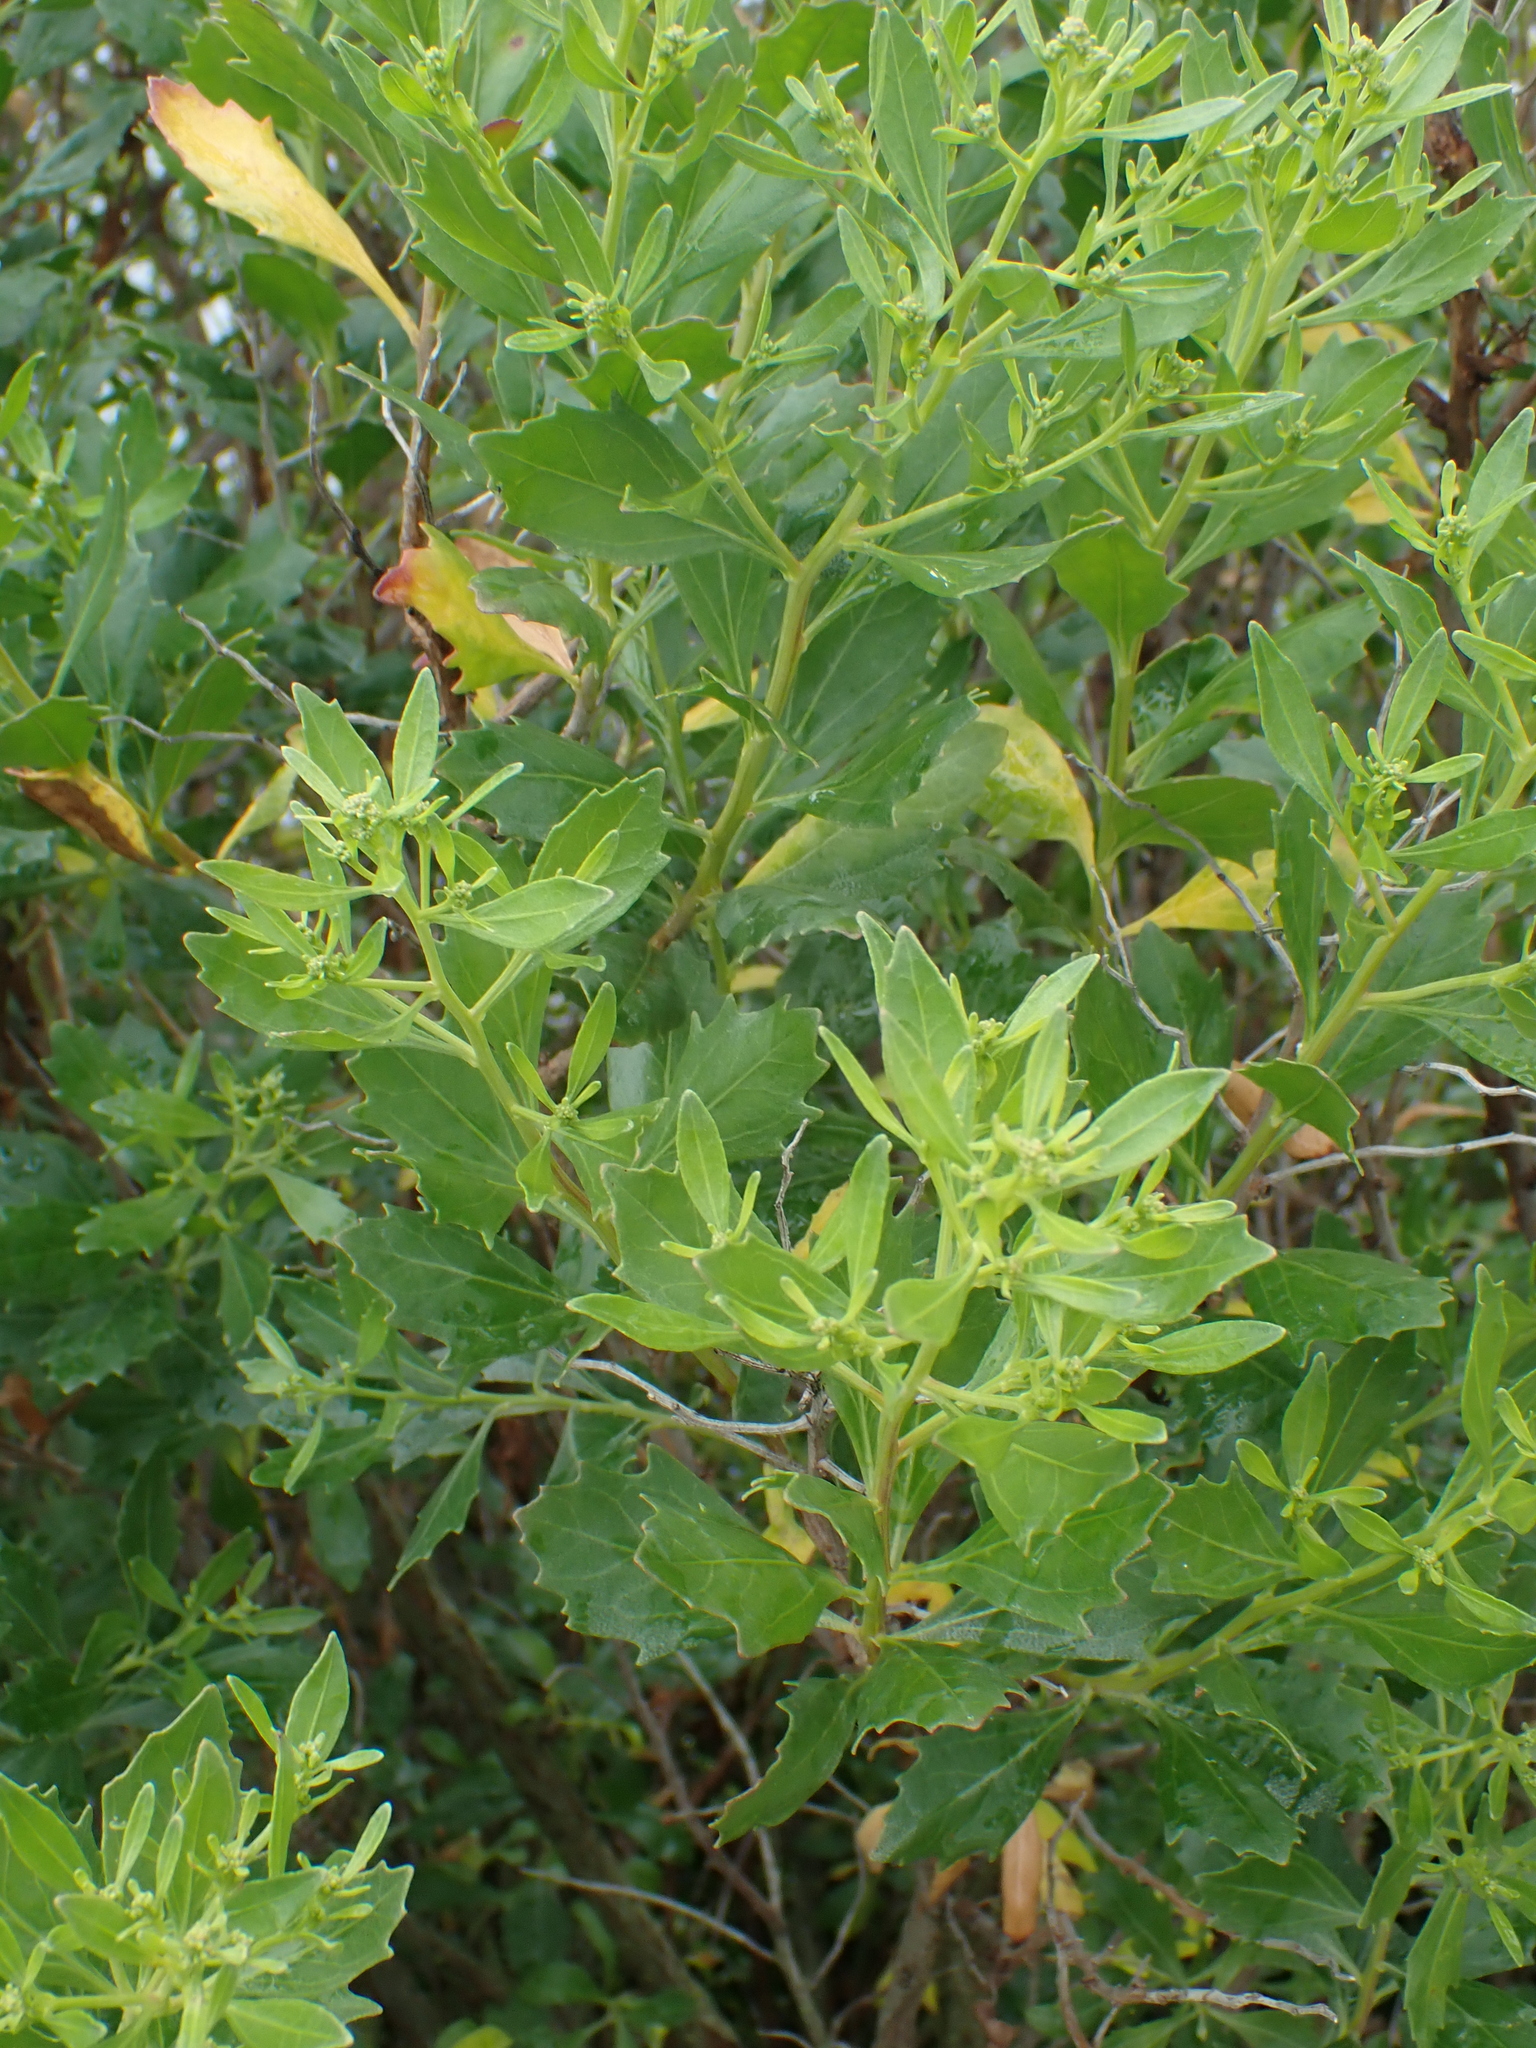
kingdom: Plantae
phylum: Tracheophyta
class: Magnoliopsida
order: Asterales
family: Asteraceae
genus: Baccharis
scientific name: Baccharis halimifolia
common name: Eastern baccharis
